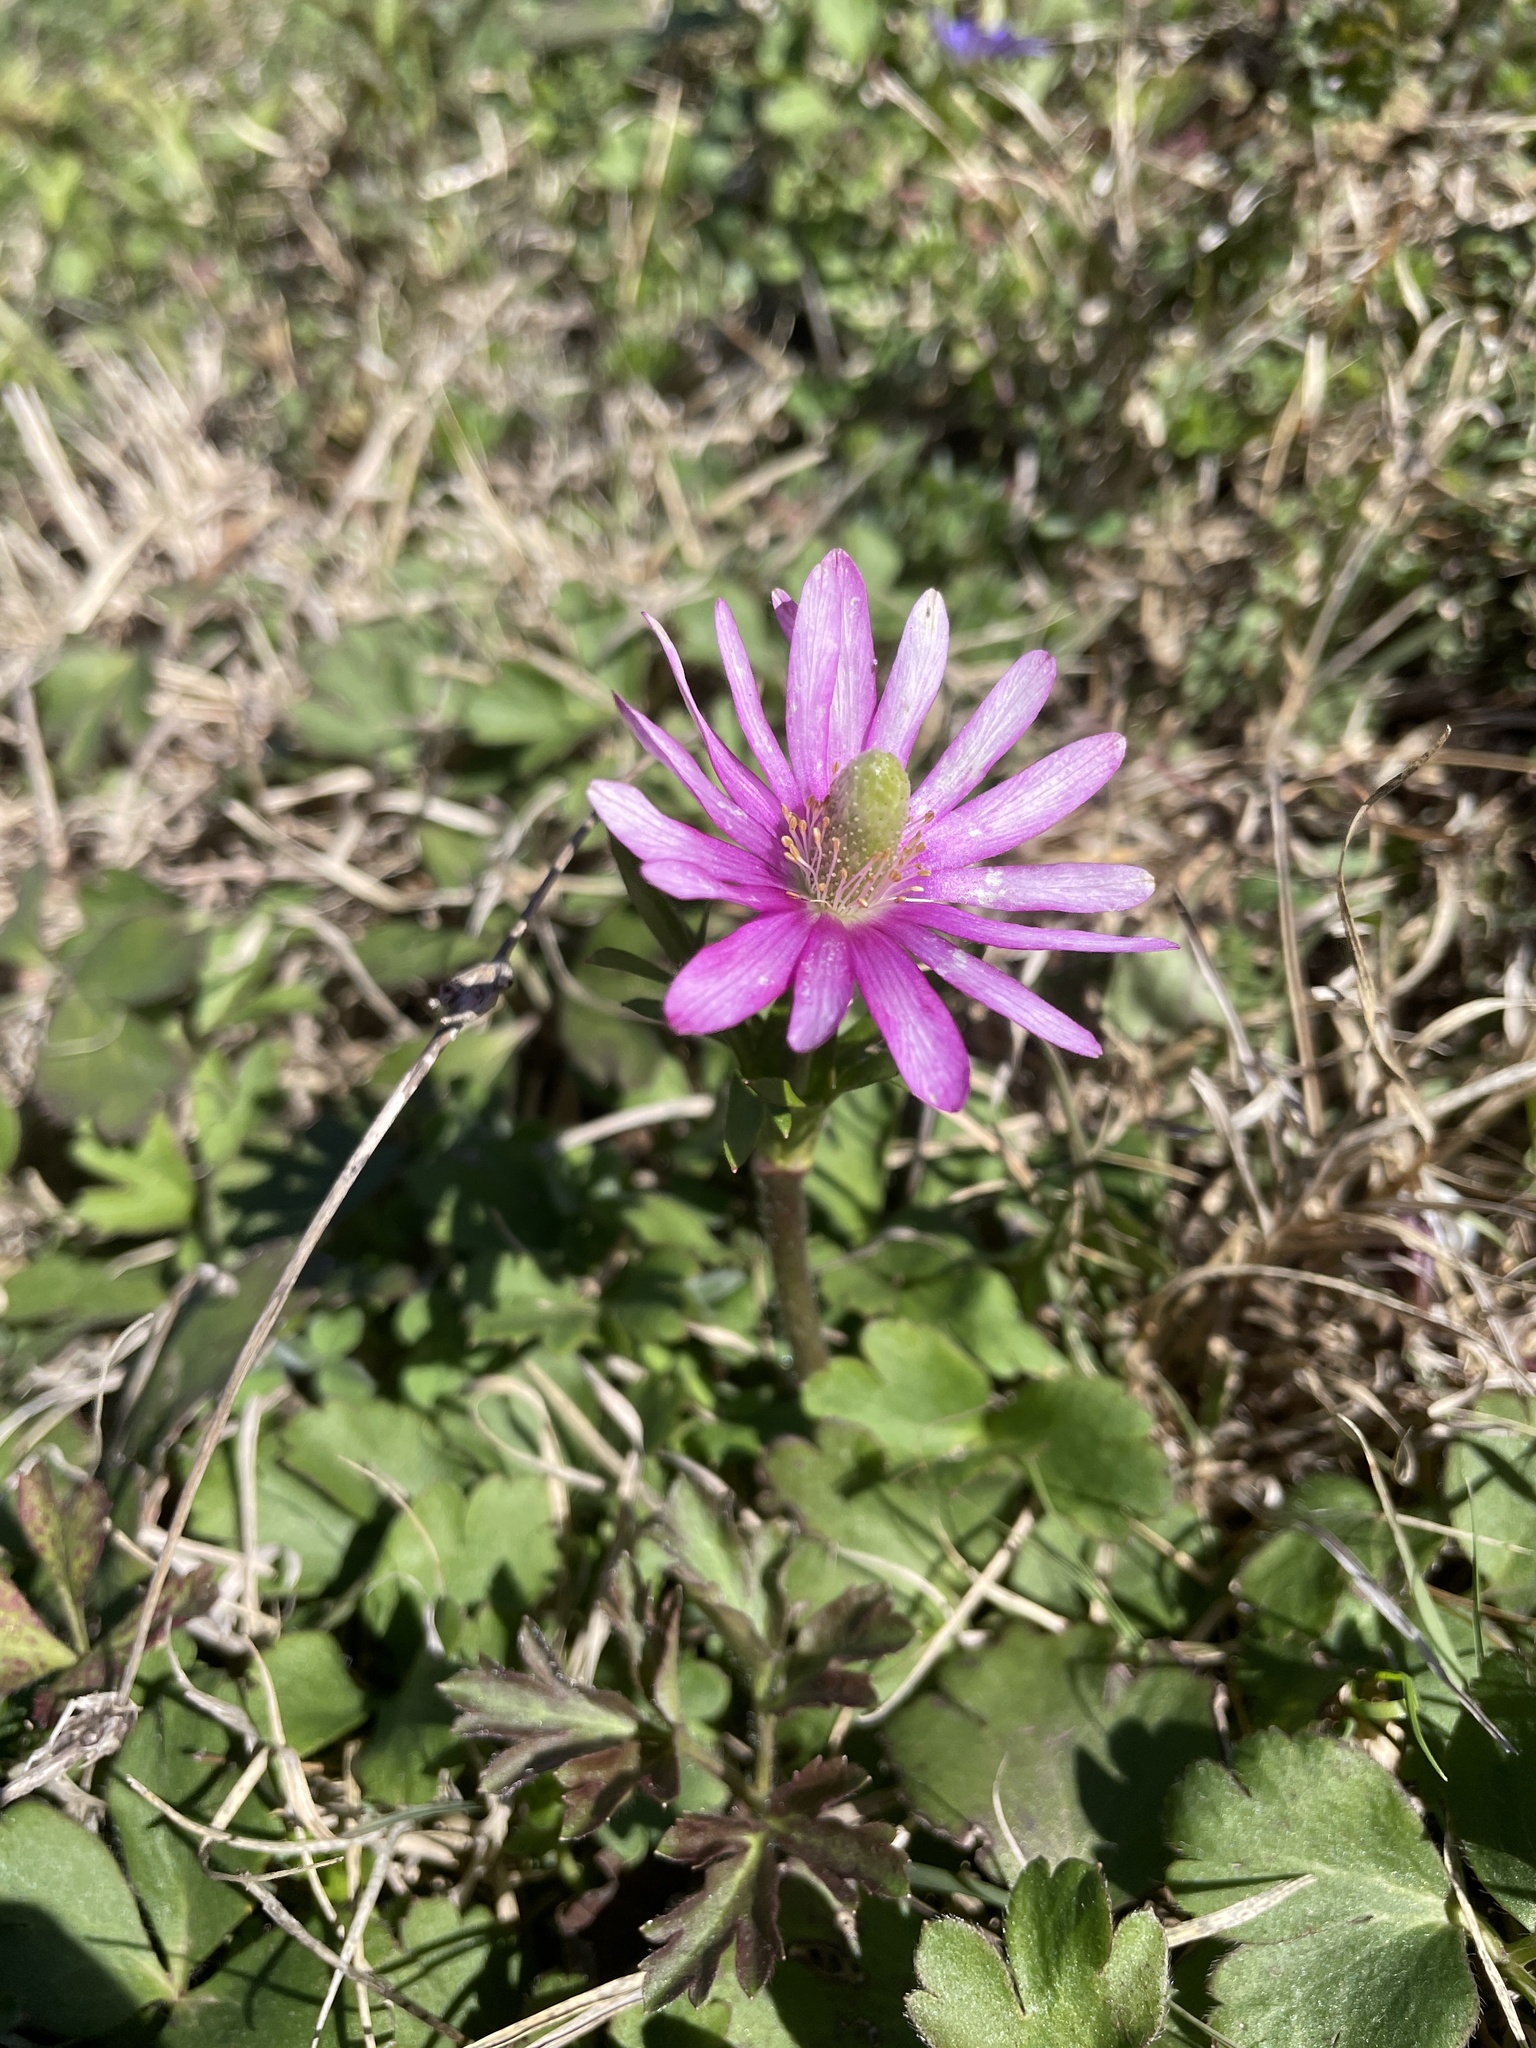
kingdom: Plantae
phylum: Tracheophyta
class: Magnoliopsida
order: Ranunculales
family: Ranunculaceae
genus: Anemone
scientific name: Anemone berlandieri
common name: Ten-petal anemone
